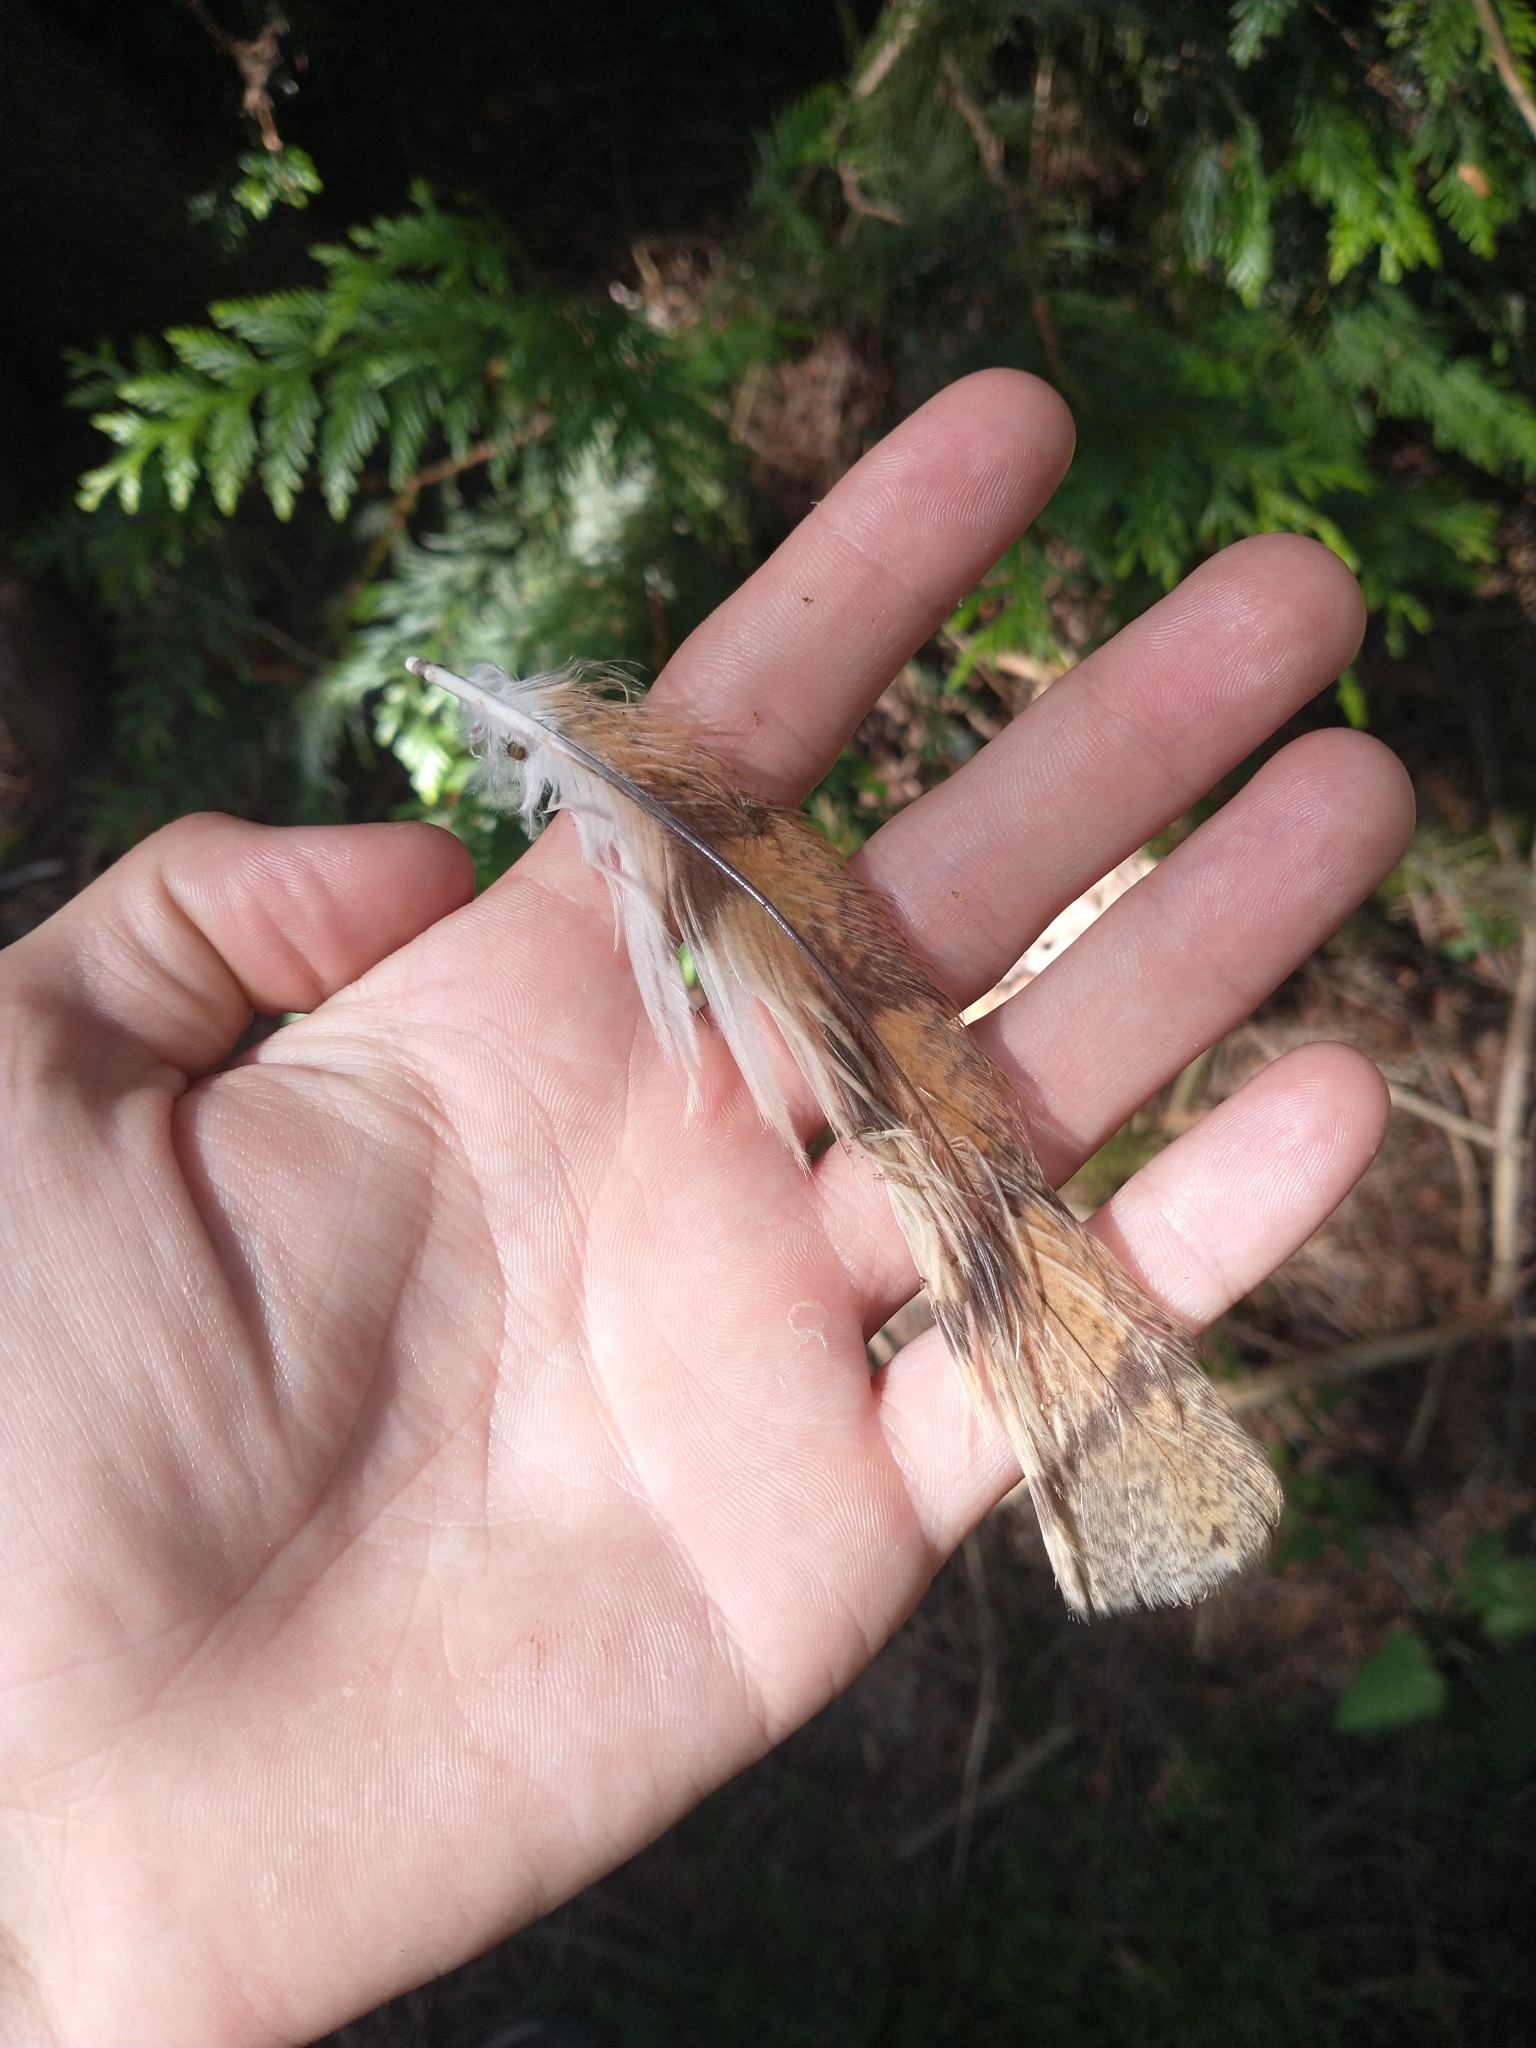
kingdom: Animalia
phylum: Chordata
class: Aves
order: Strigiformes
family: Tytonidae
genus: Tyto
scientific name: Tyto alba
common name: Barn owl
